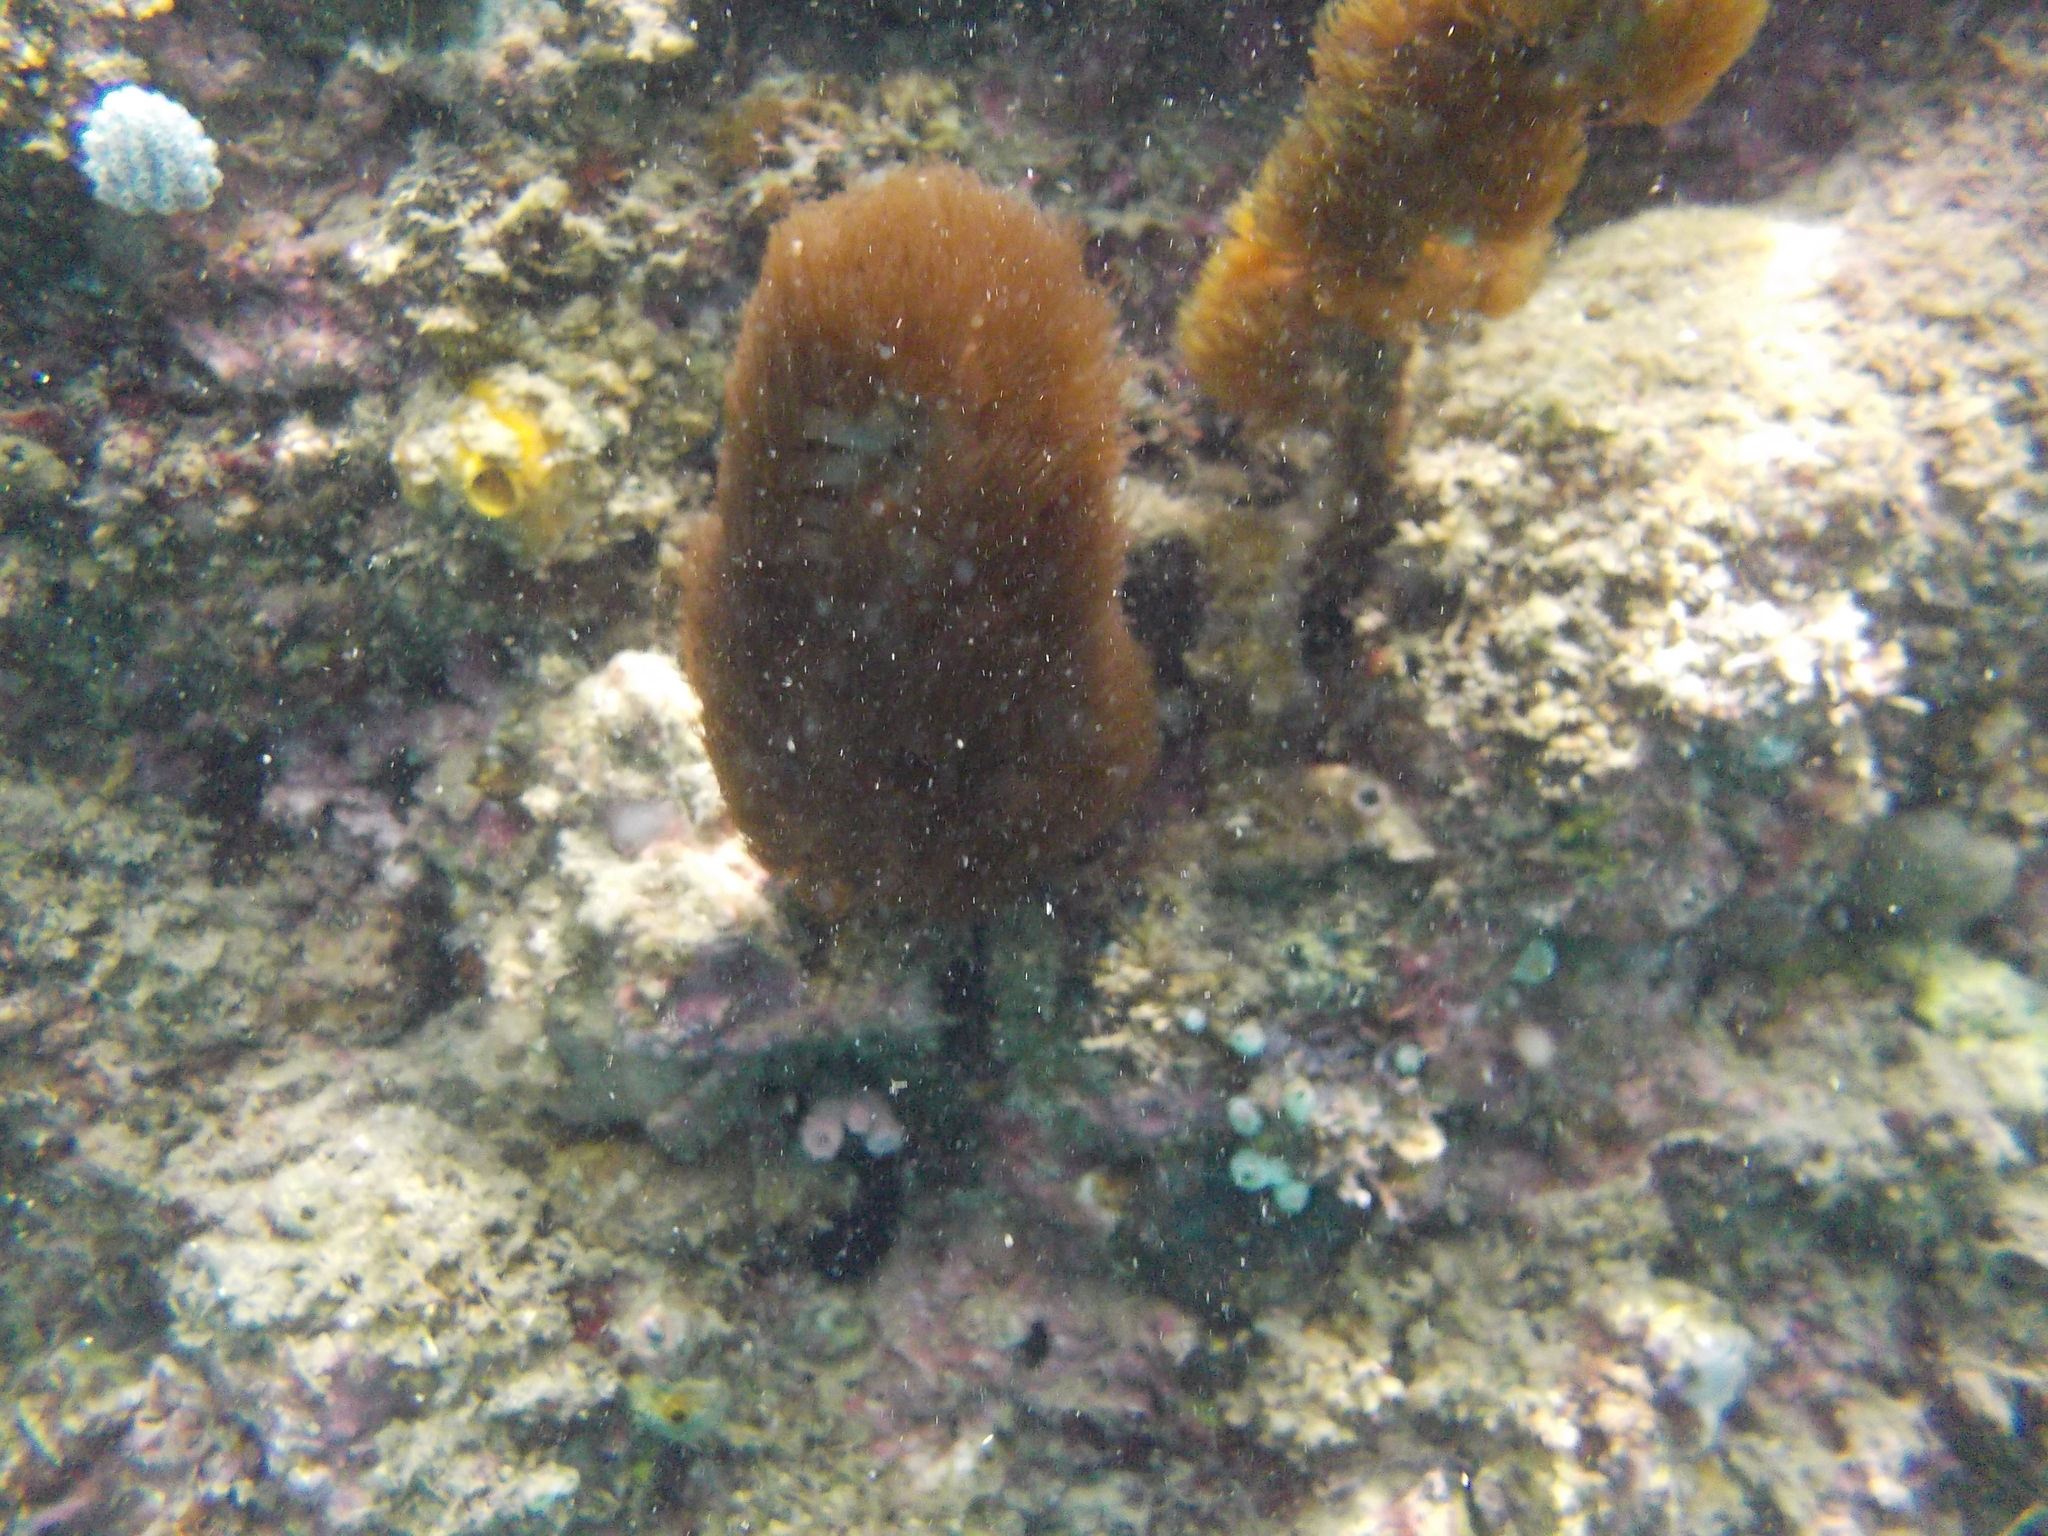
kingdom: Animalia
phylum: Cnidaria
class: Anthozoa
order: Zoantharia
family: Zoanthidae
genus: Acrozoanthus
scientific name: Acrozoanthus australiae
